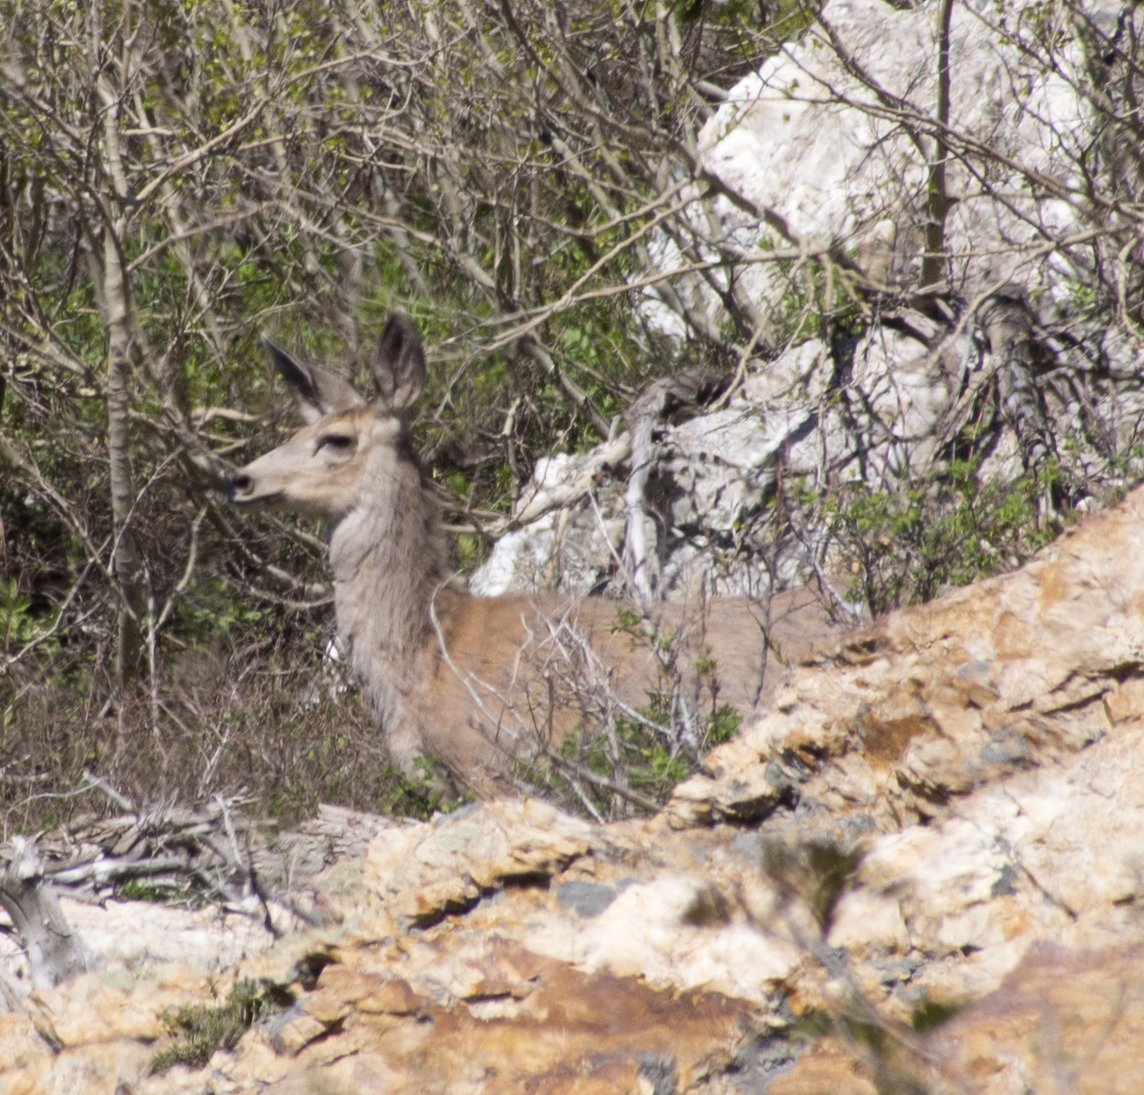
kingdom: Animalia
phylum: Chordata
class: Mammalia
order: Artiodactyla
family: Cervidae
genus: Odocoileus
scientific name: Odocoileus hemionus
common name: Mule deer
